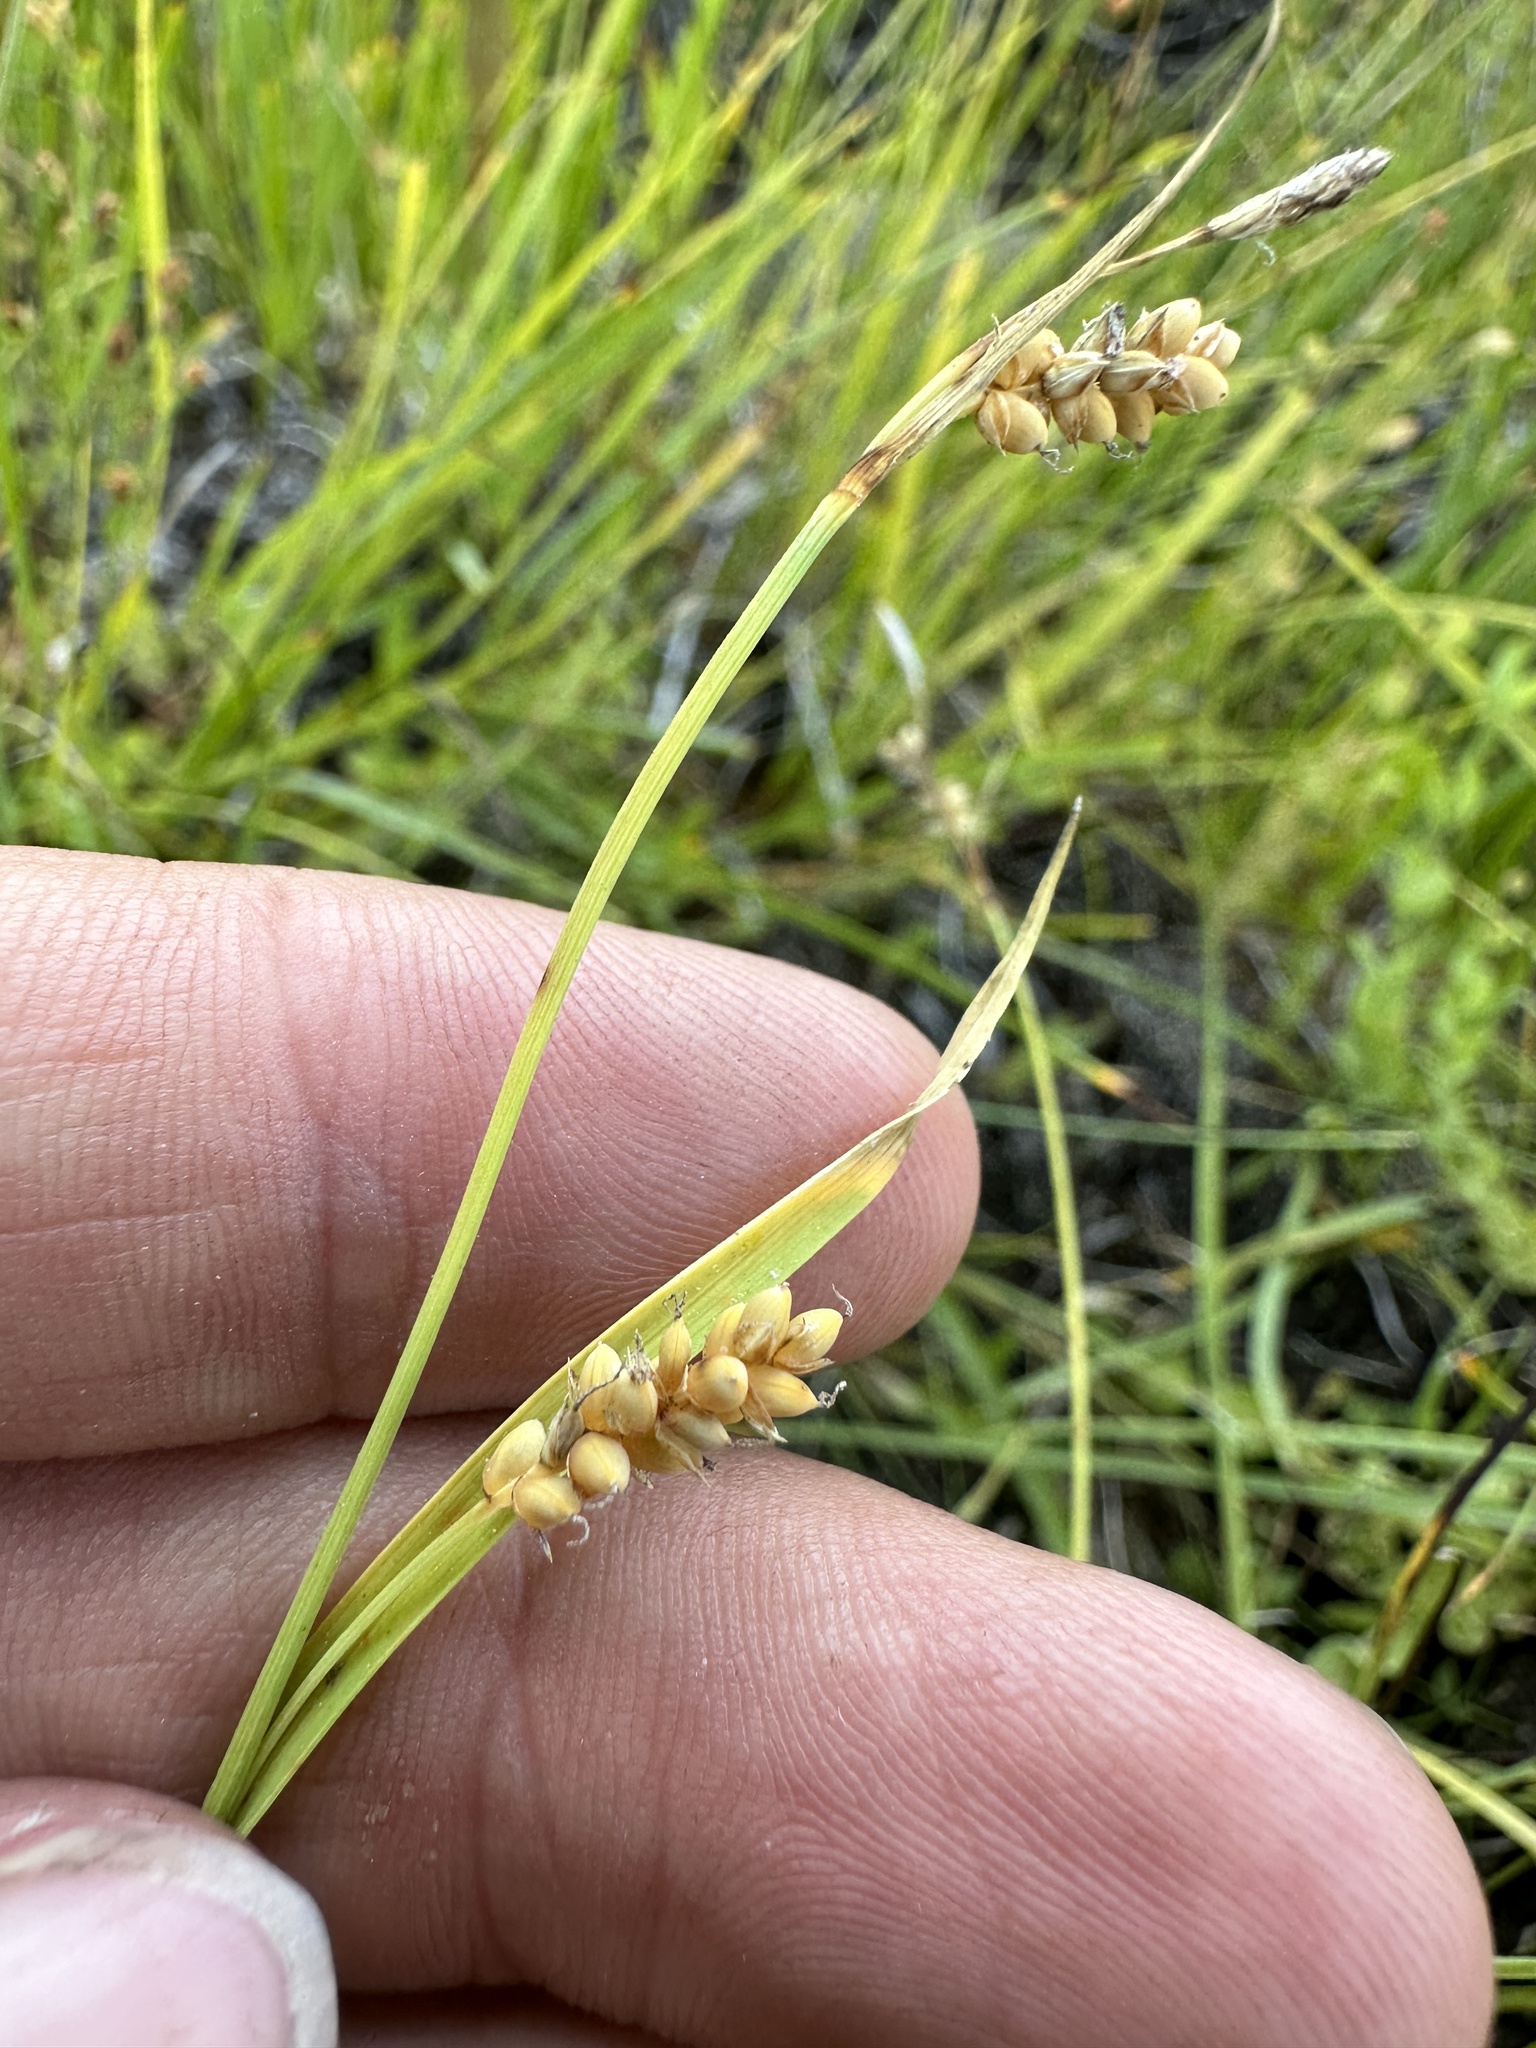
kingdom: Plantae
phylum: Tracheophyta
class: Liliopsida
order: Poales
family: Cyperaceae
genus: Carex
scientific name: Carex aurea
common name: Golden sedge
